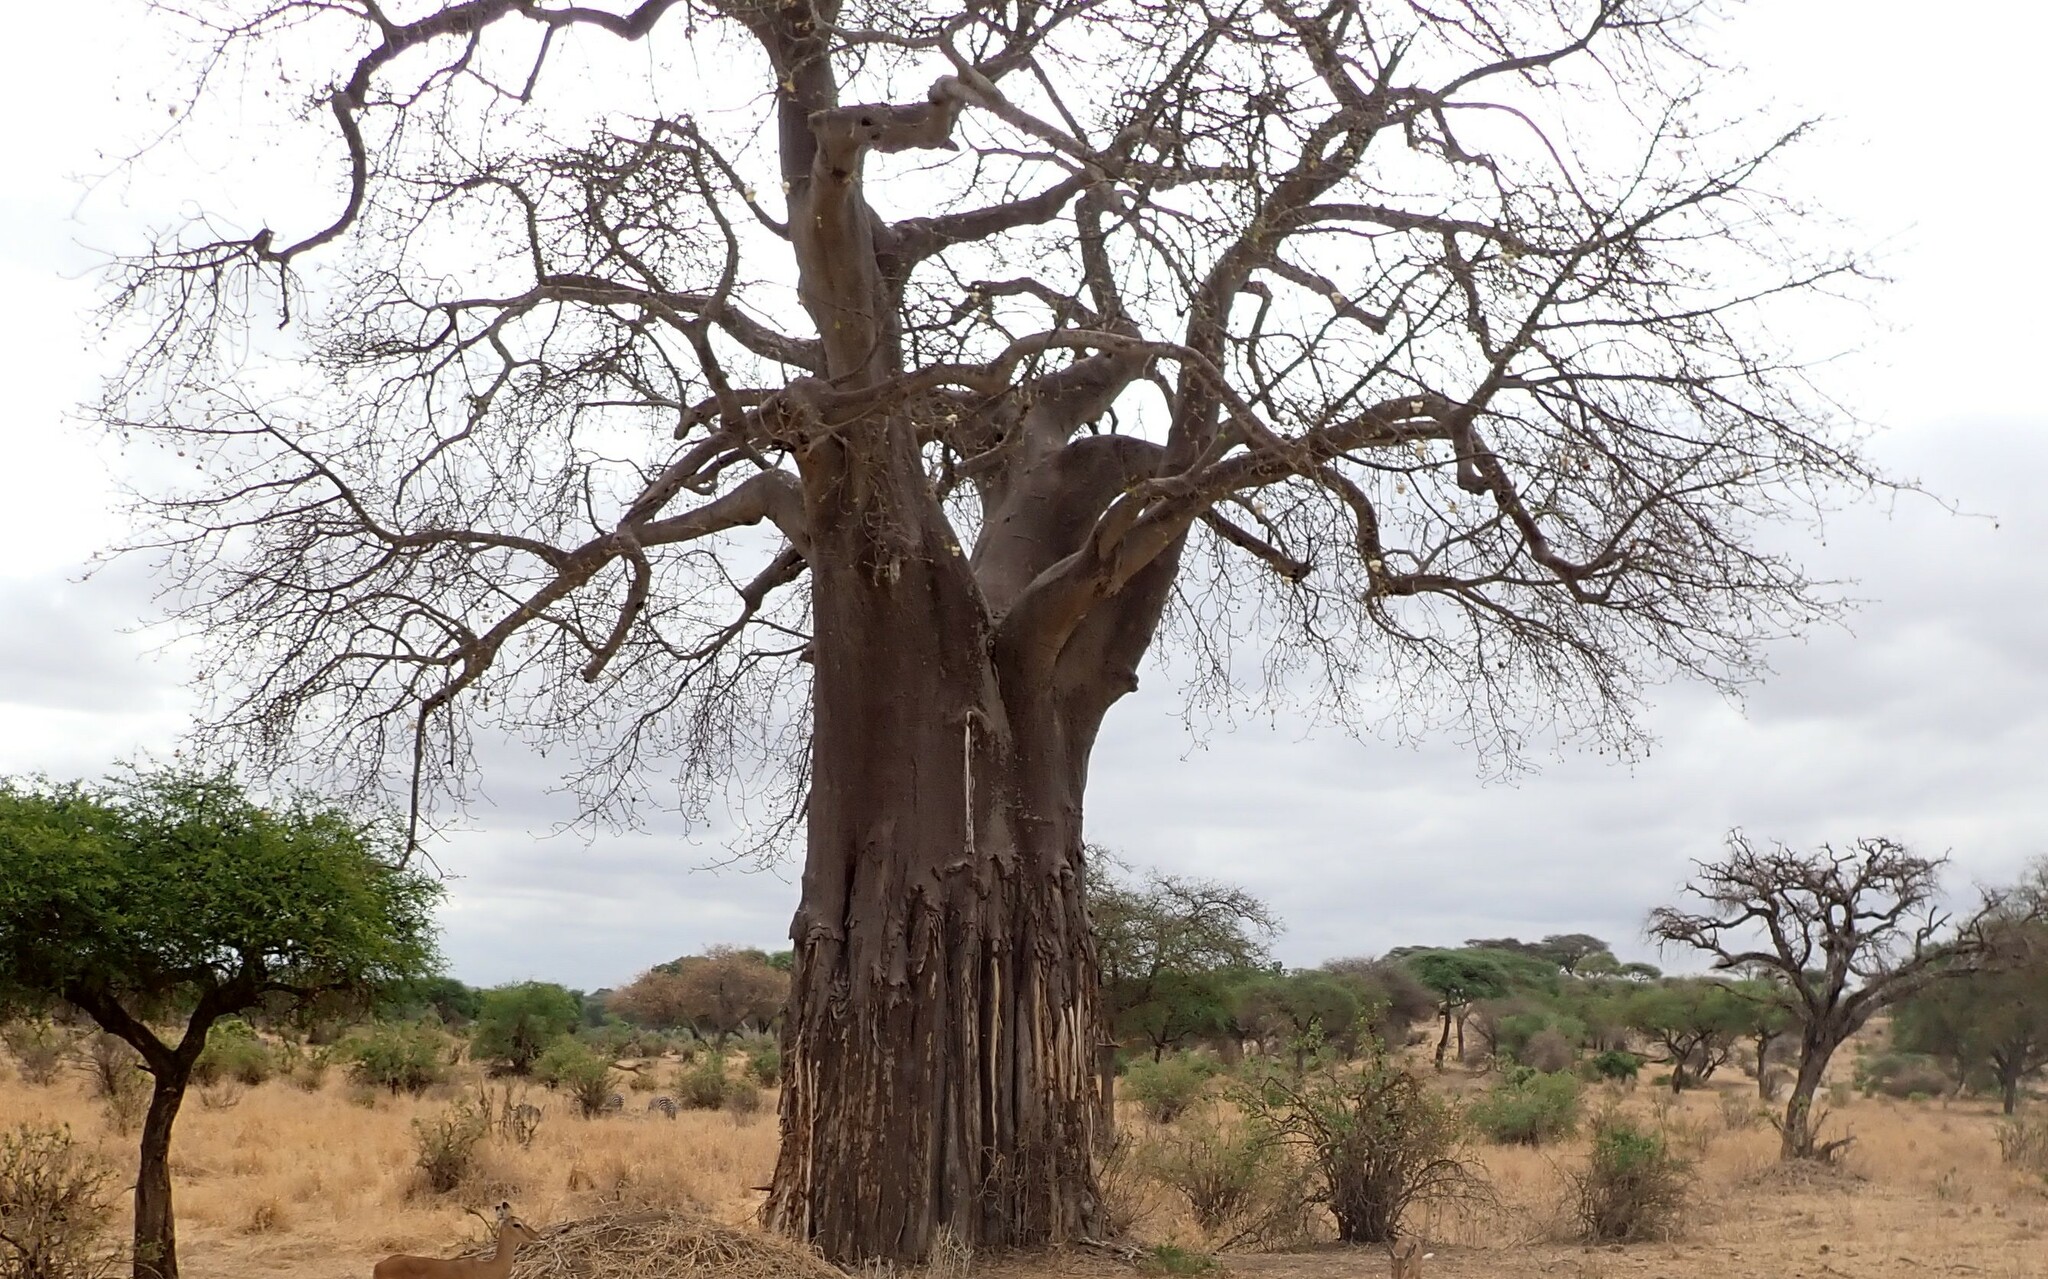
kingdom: Plantae
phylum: Tracheophyta
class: Magnoliopsida
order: Malvales
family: Malvaceae
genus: Adansonia
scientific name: Adansonia digitata
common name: Dead-rat-tree
